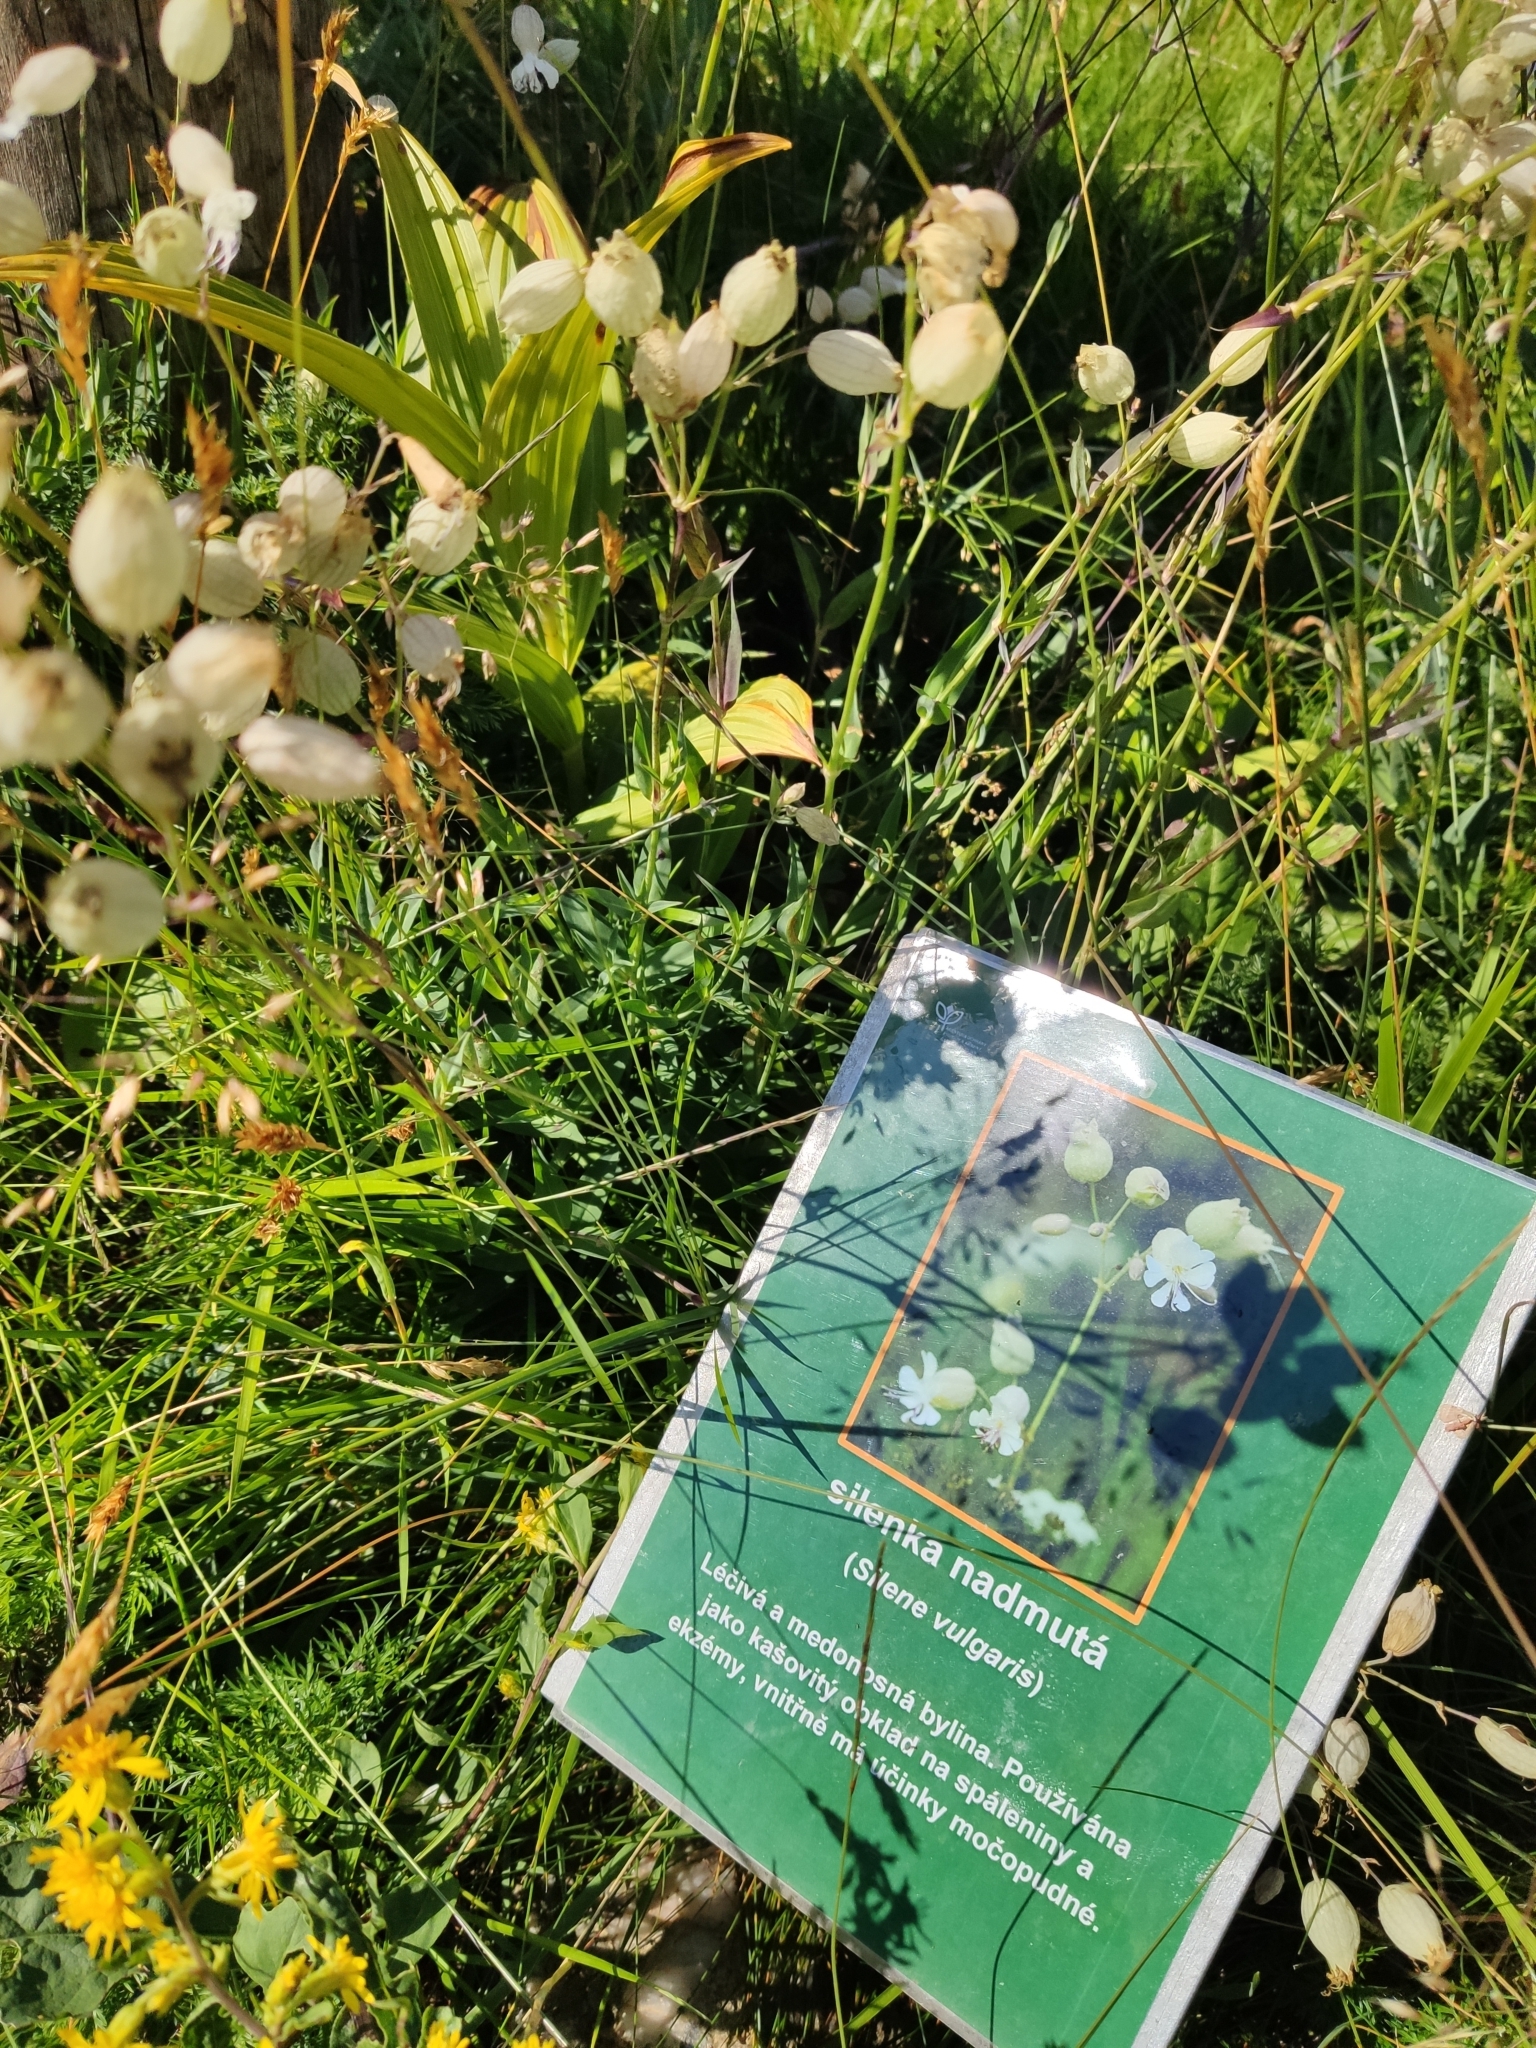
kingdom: Plantae
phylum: Tracheophyta
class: Magnoliopsida
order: Caryophyllales
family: Caryophyllaceae
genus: Silene
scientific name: Silene vulgaris
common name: Bladder campion
